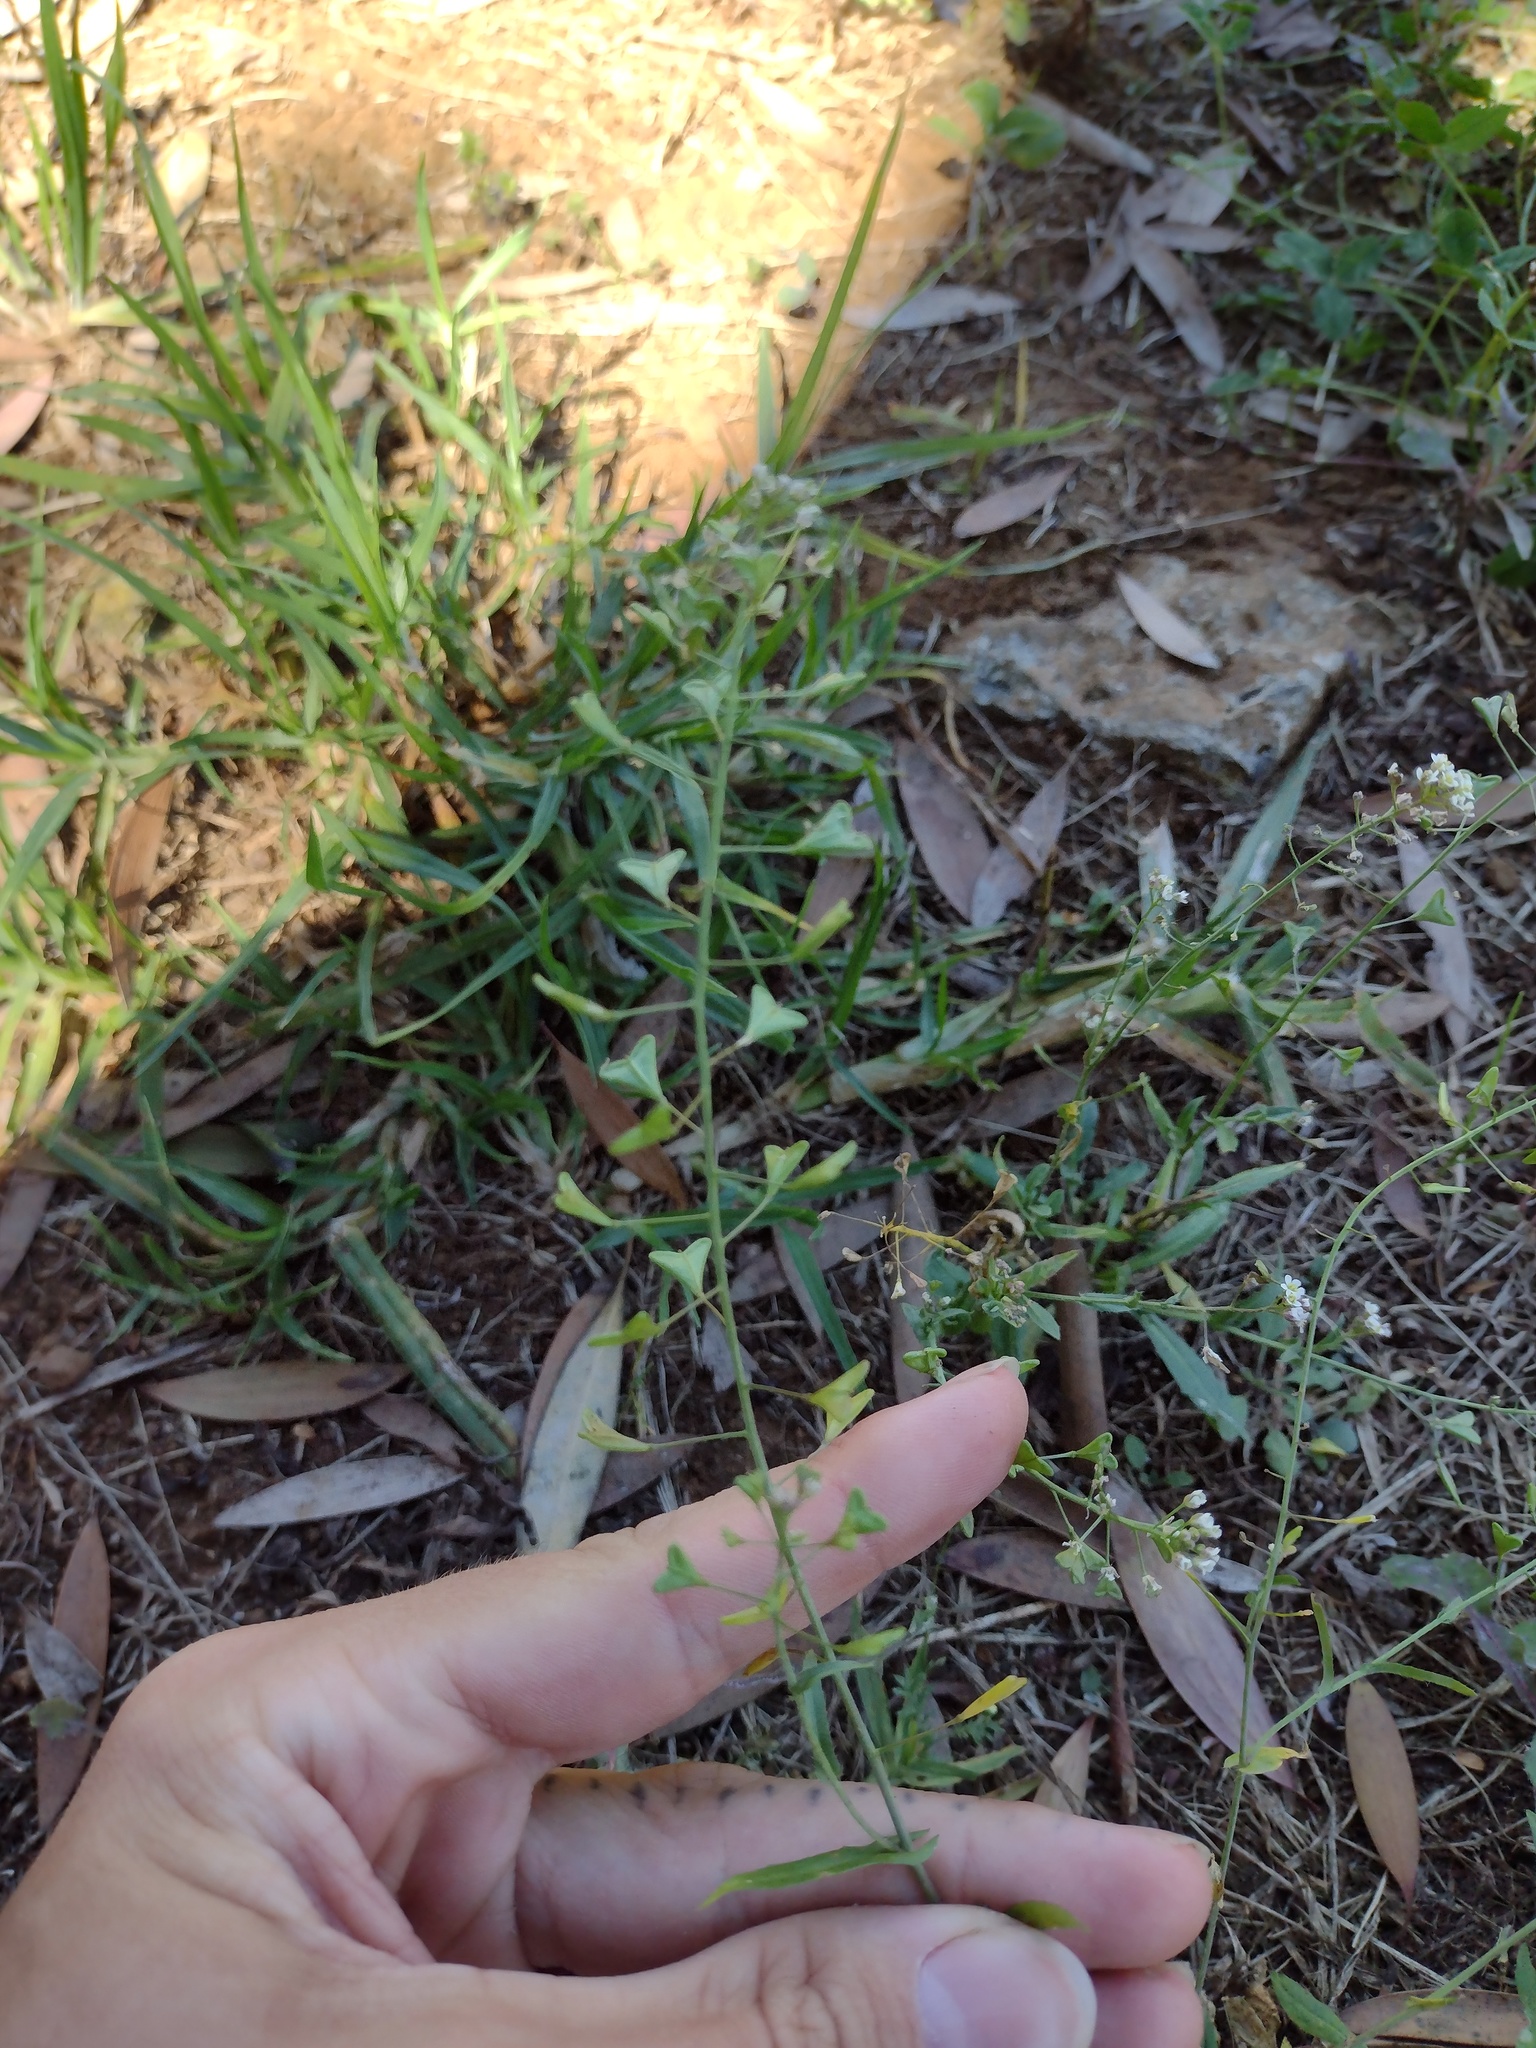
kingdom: Plantae
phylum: Tracheophyta
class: Magnoliopsida
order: Brassicales
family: Brassicaceae
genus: Capsella
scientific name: Capsella bursa-pastoris
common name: Shepherd's purse
